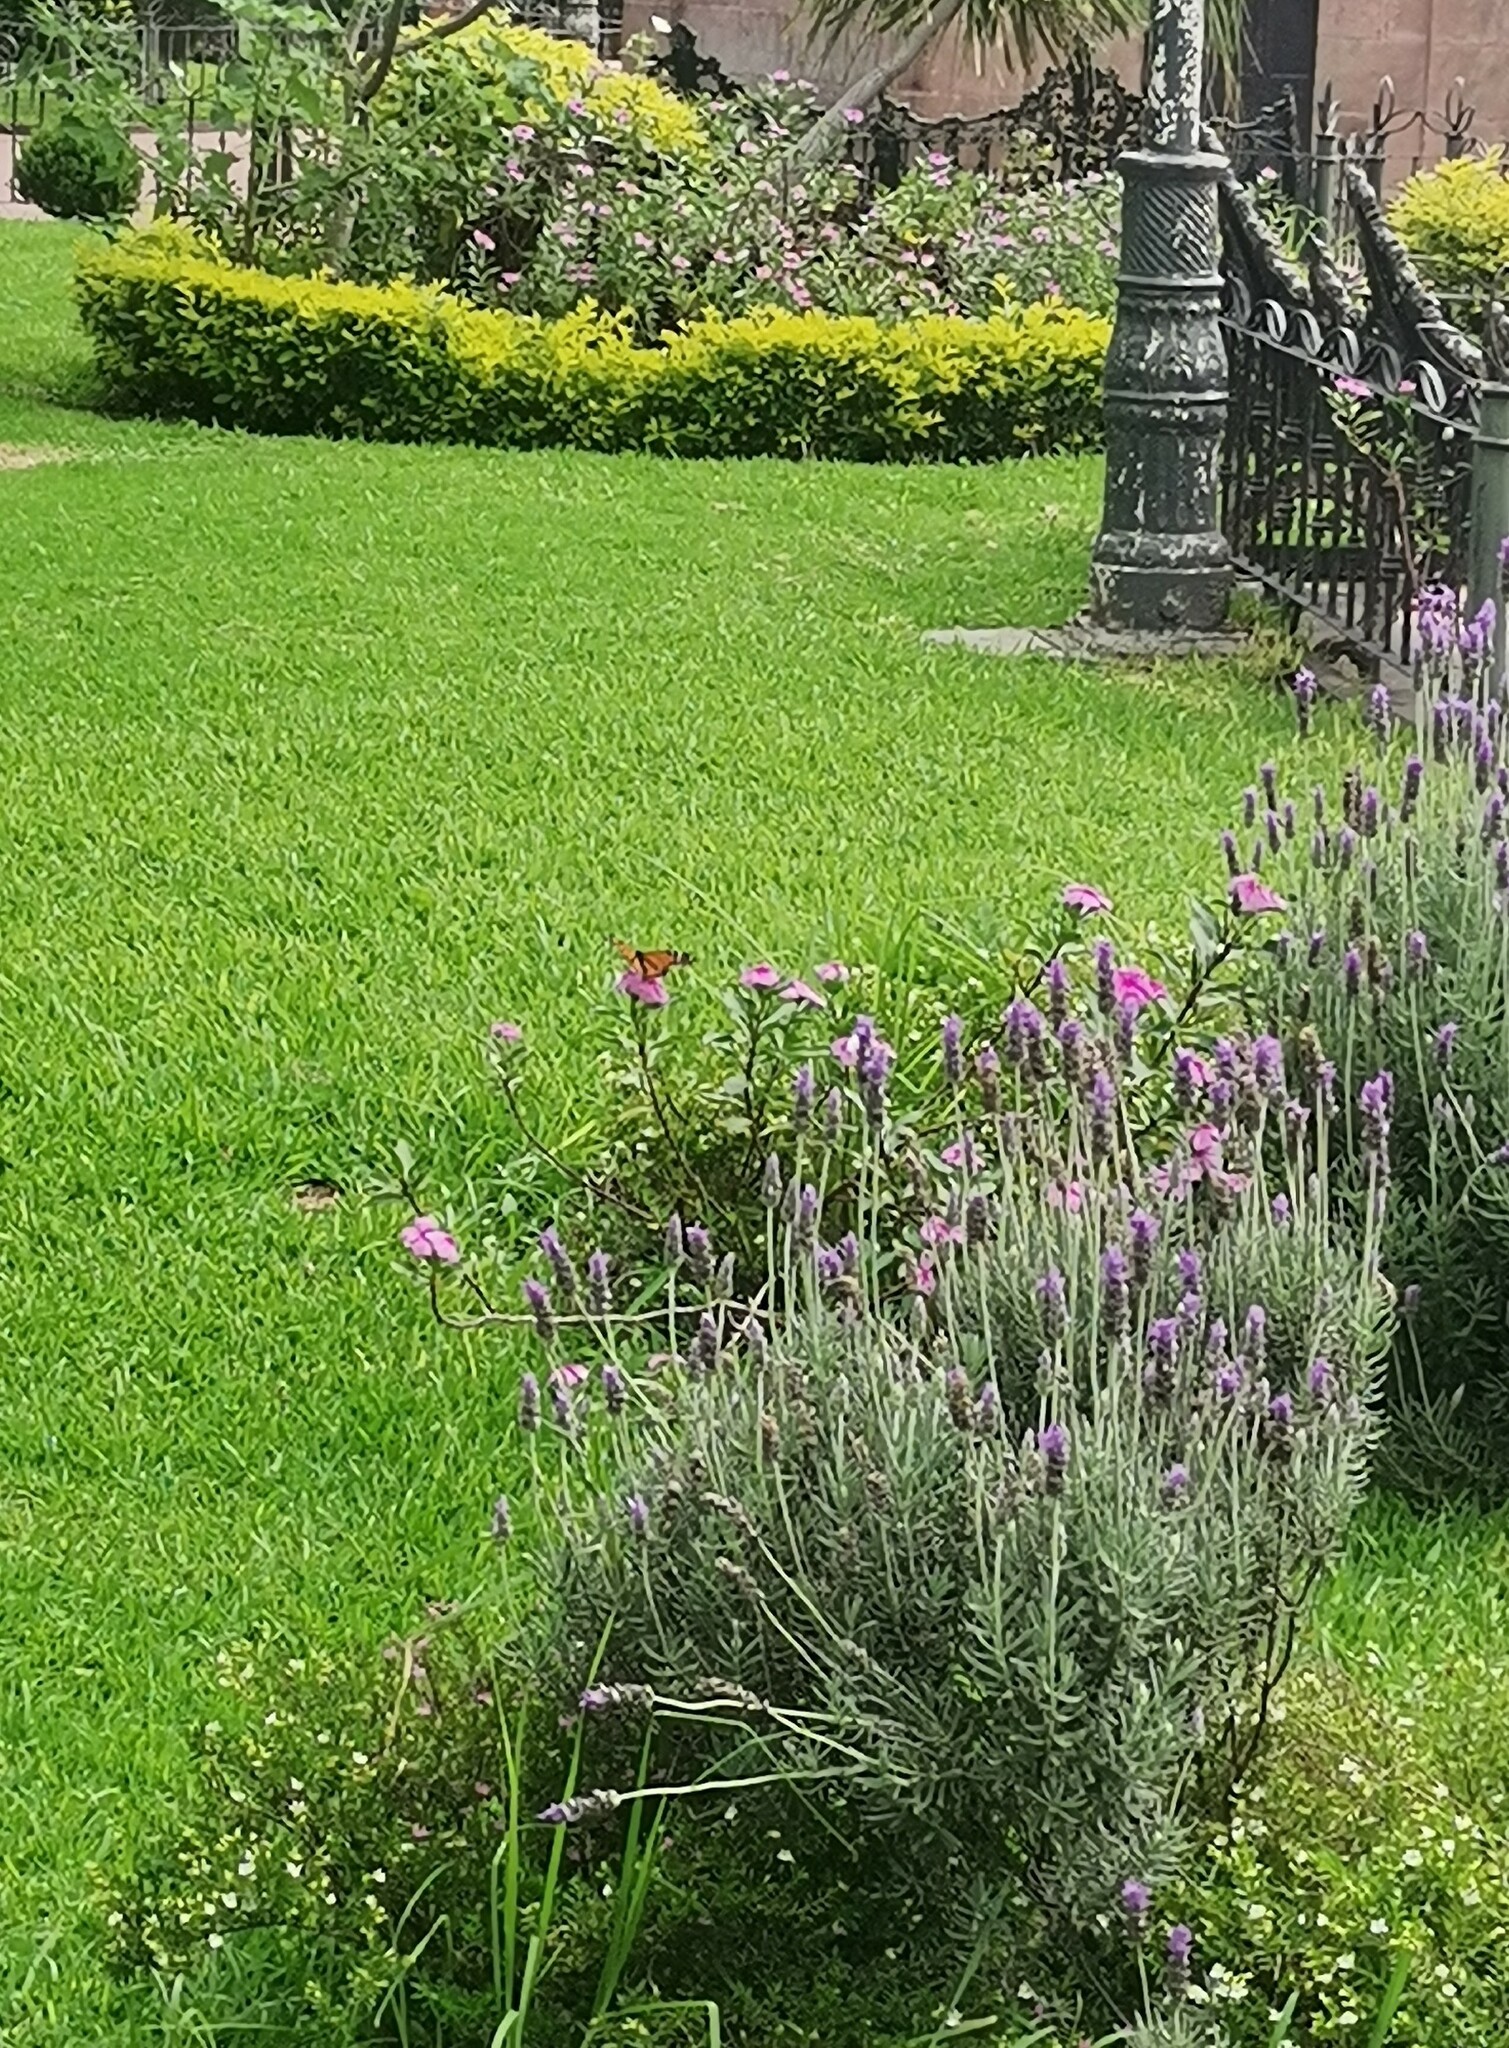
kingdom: Animalia
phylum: Arthropoda
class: Insecta
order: Lepidoptera
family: Nymphalidae
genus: Danaus
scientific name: Danaus plexippus
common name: Monarch
